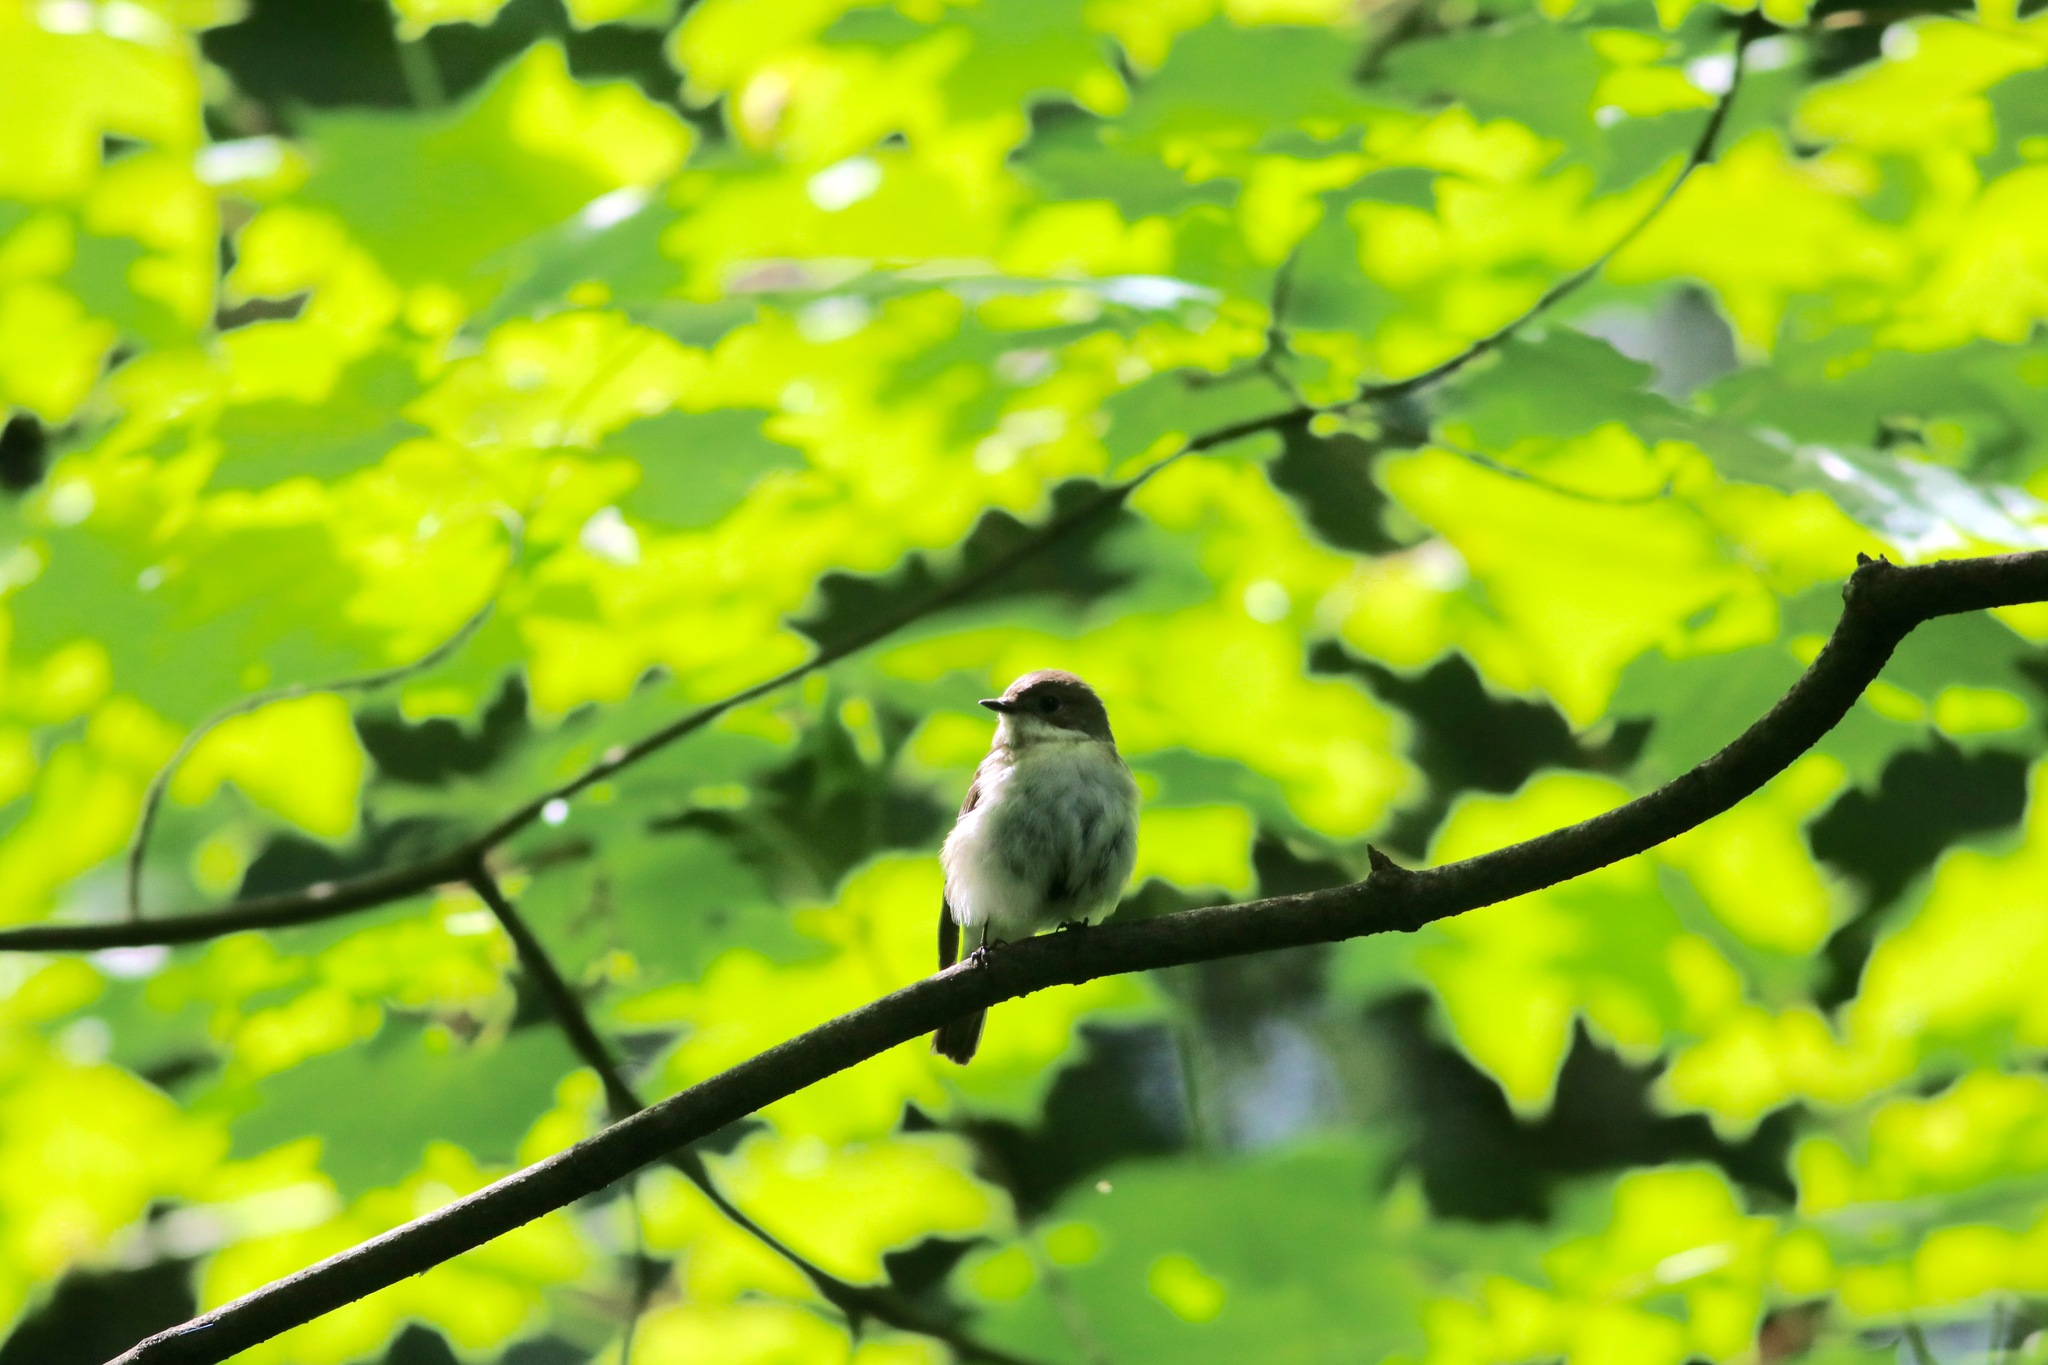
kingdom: Animalia
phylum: Chordata
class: Aves
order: Passeriformes
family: Muscicapidae
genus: Ficedula
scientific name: Ficedula hypoleuca
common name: European pied flycatcher
